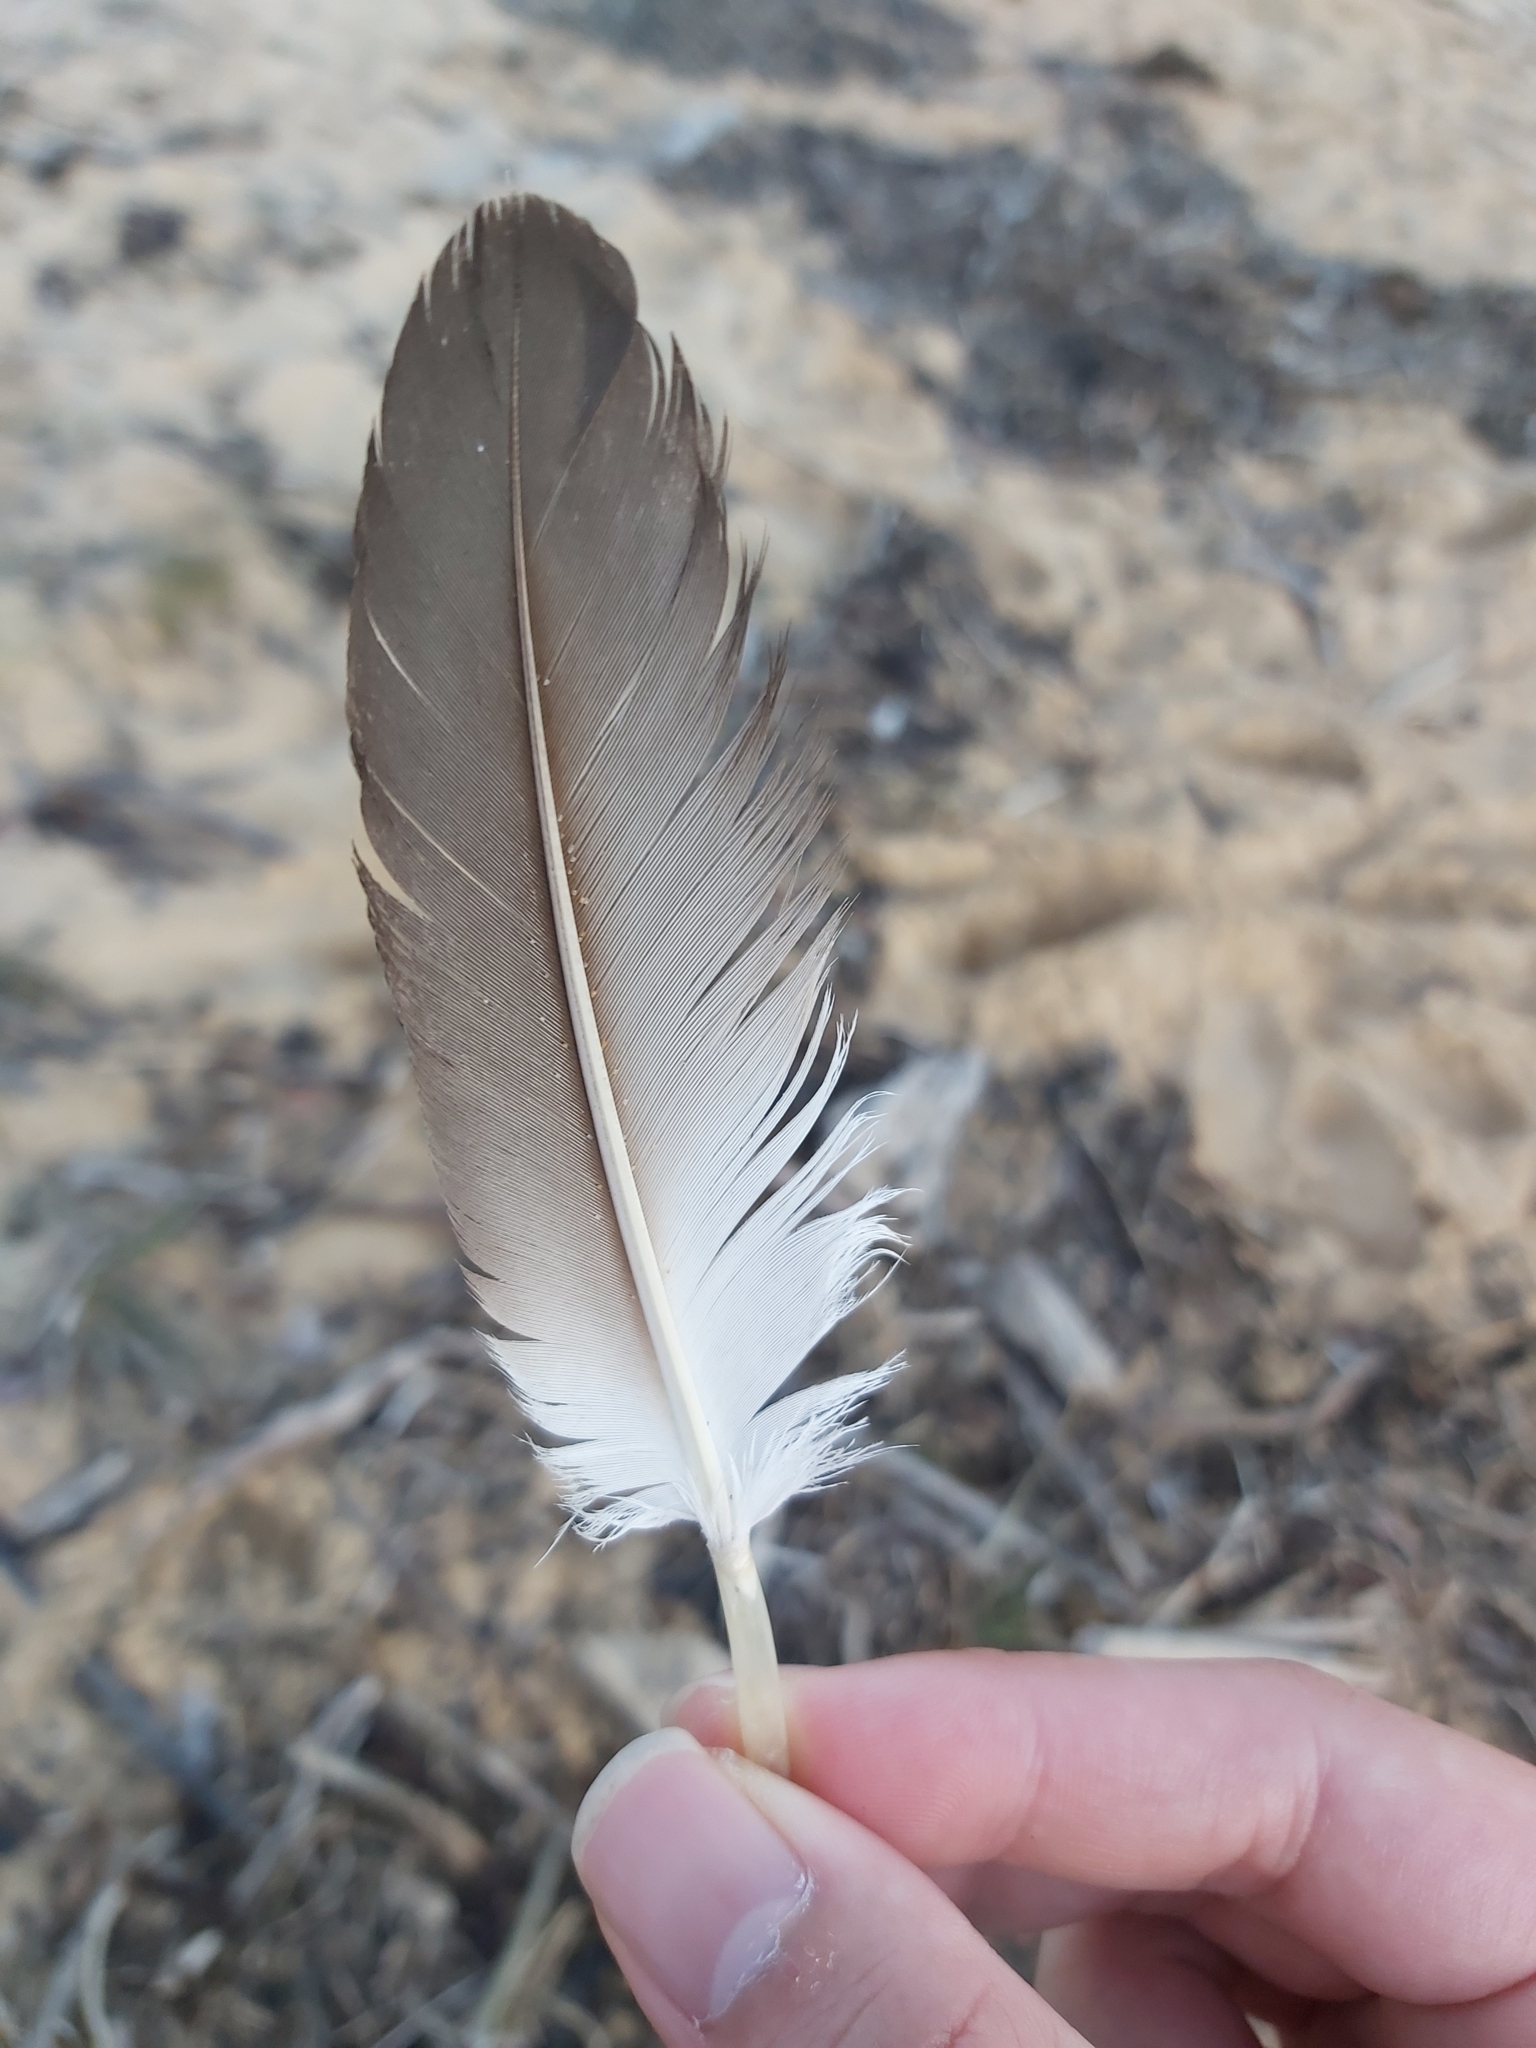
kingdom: Animalia
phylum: Chordata
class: Aves
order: Suliformes
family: Sulidae
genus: Morus
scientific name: Morus serrator
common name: Australasian gannet
